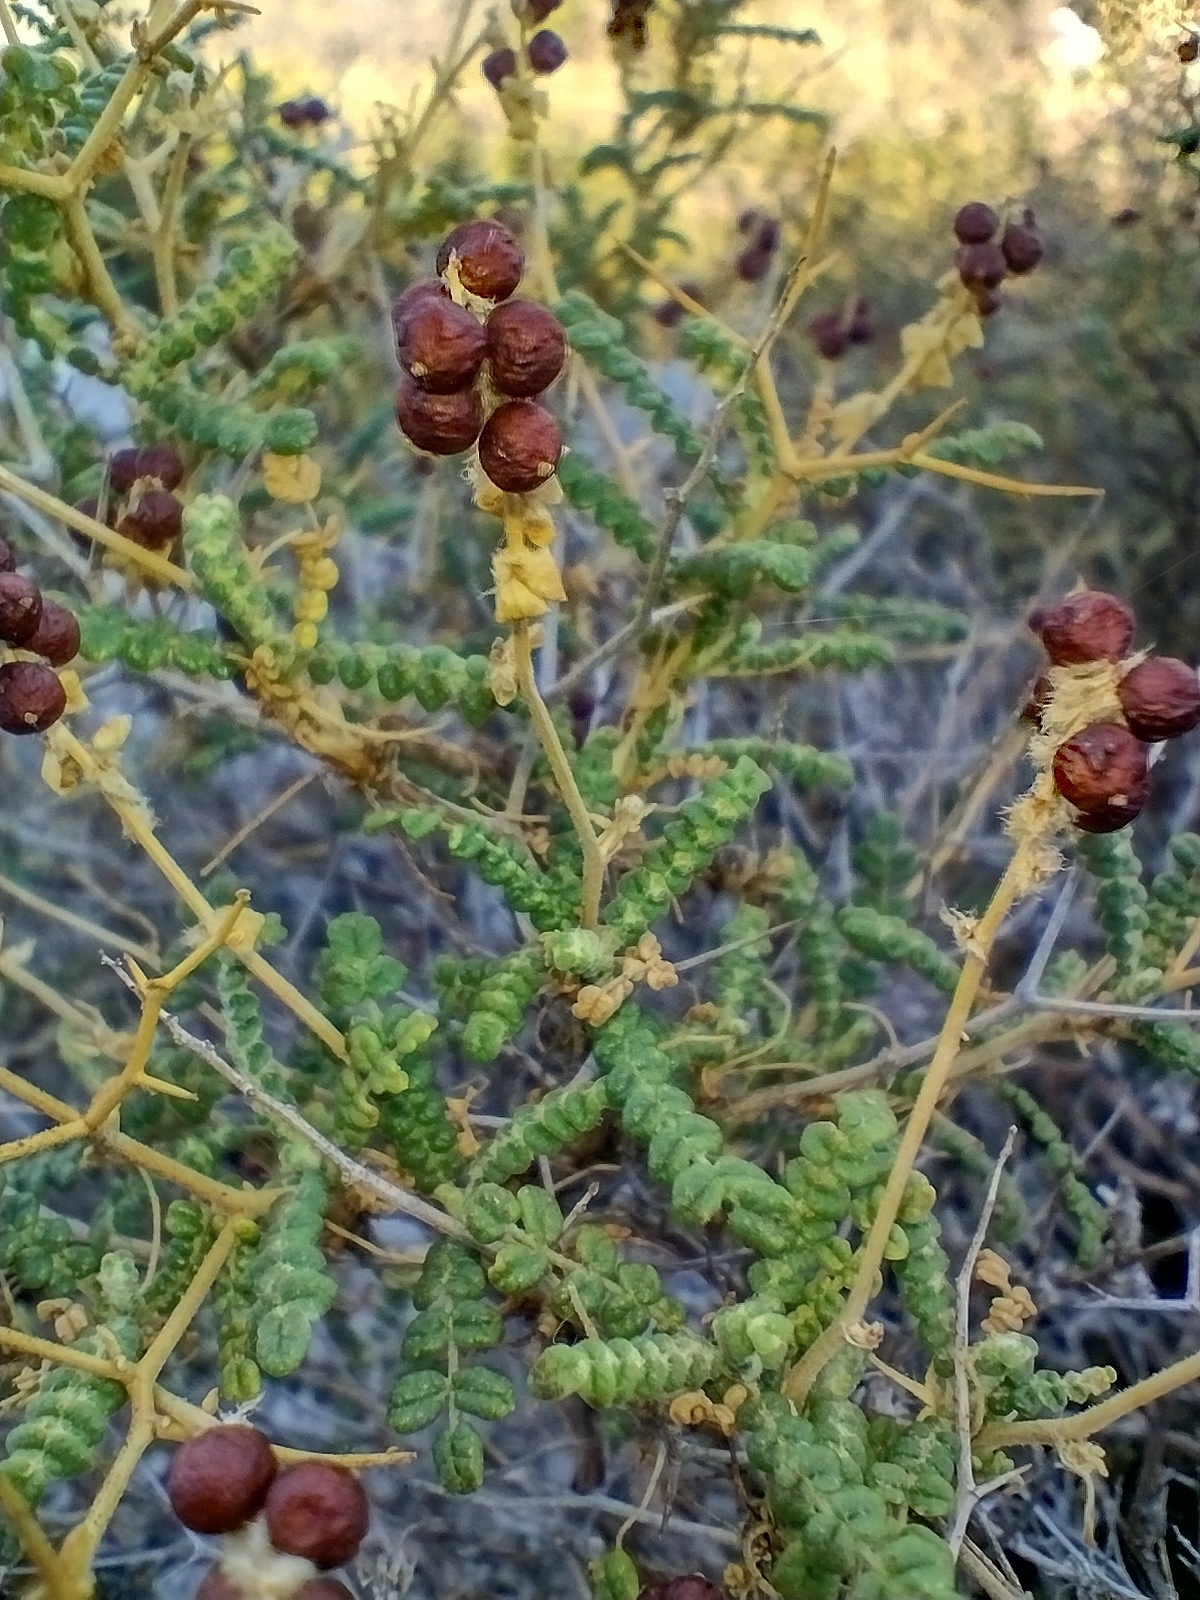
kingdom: Plantae
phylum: Tracheophyta
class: Magnoliopsida
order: Rosales
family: Rosaceae
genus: Sarcopoterium
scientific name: Sarcopoterium spinosum
